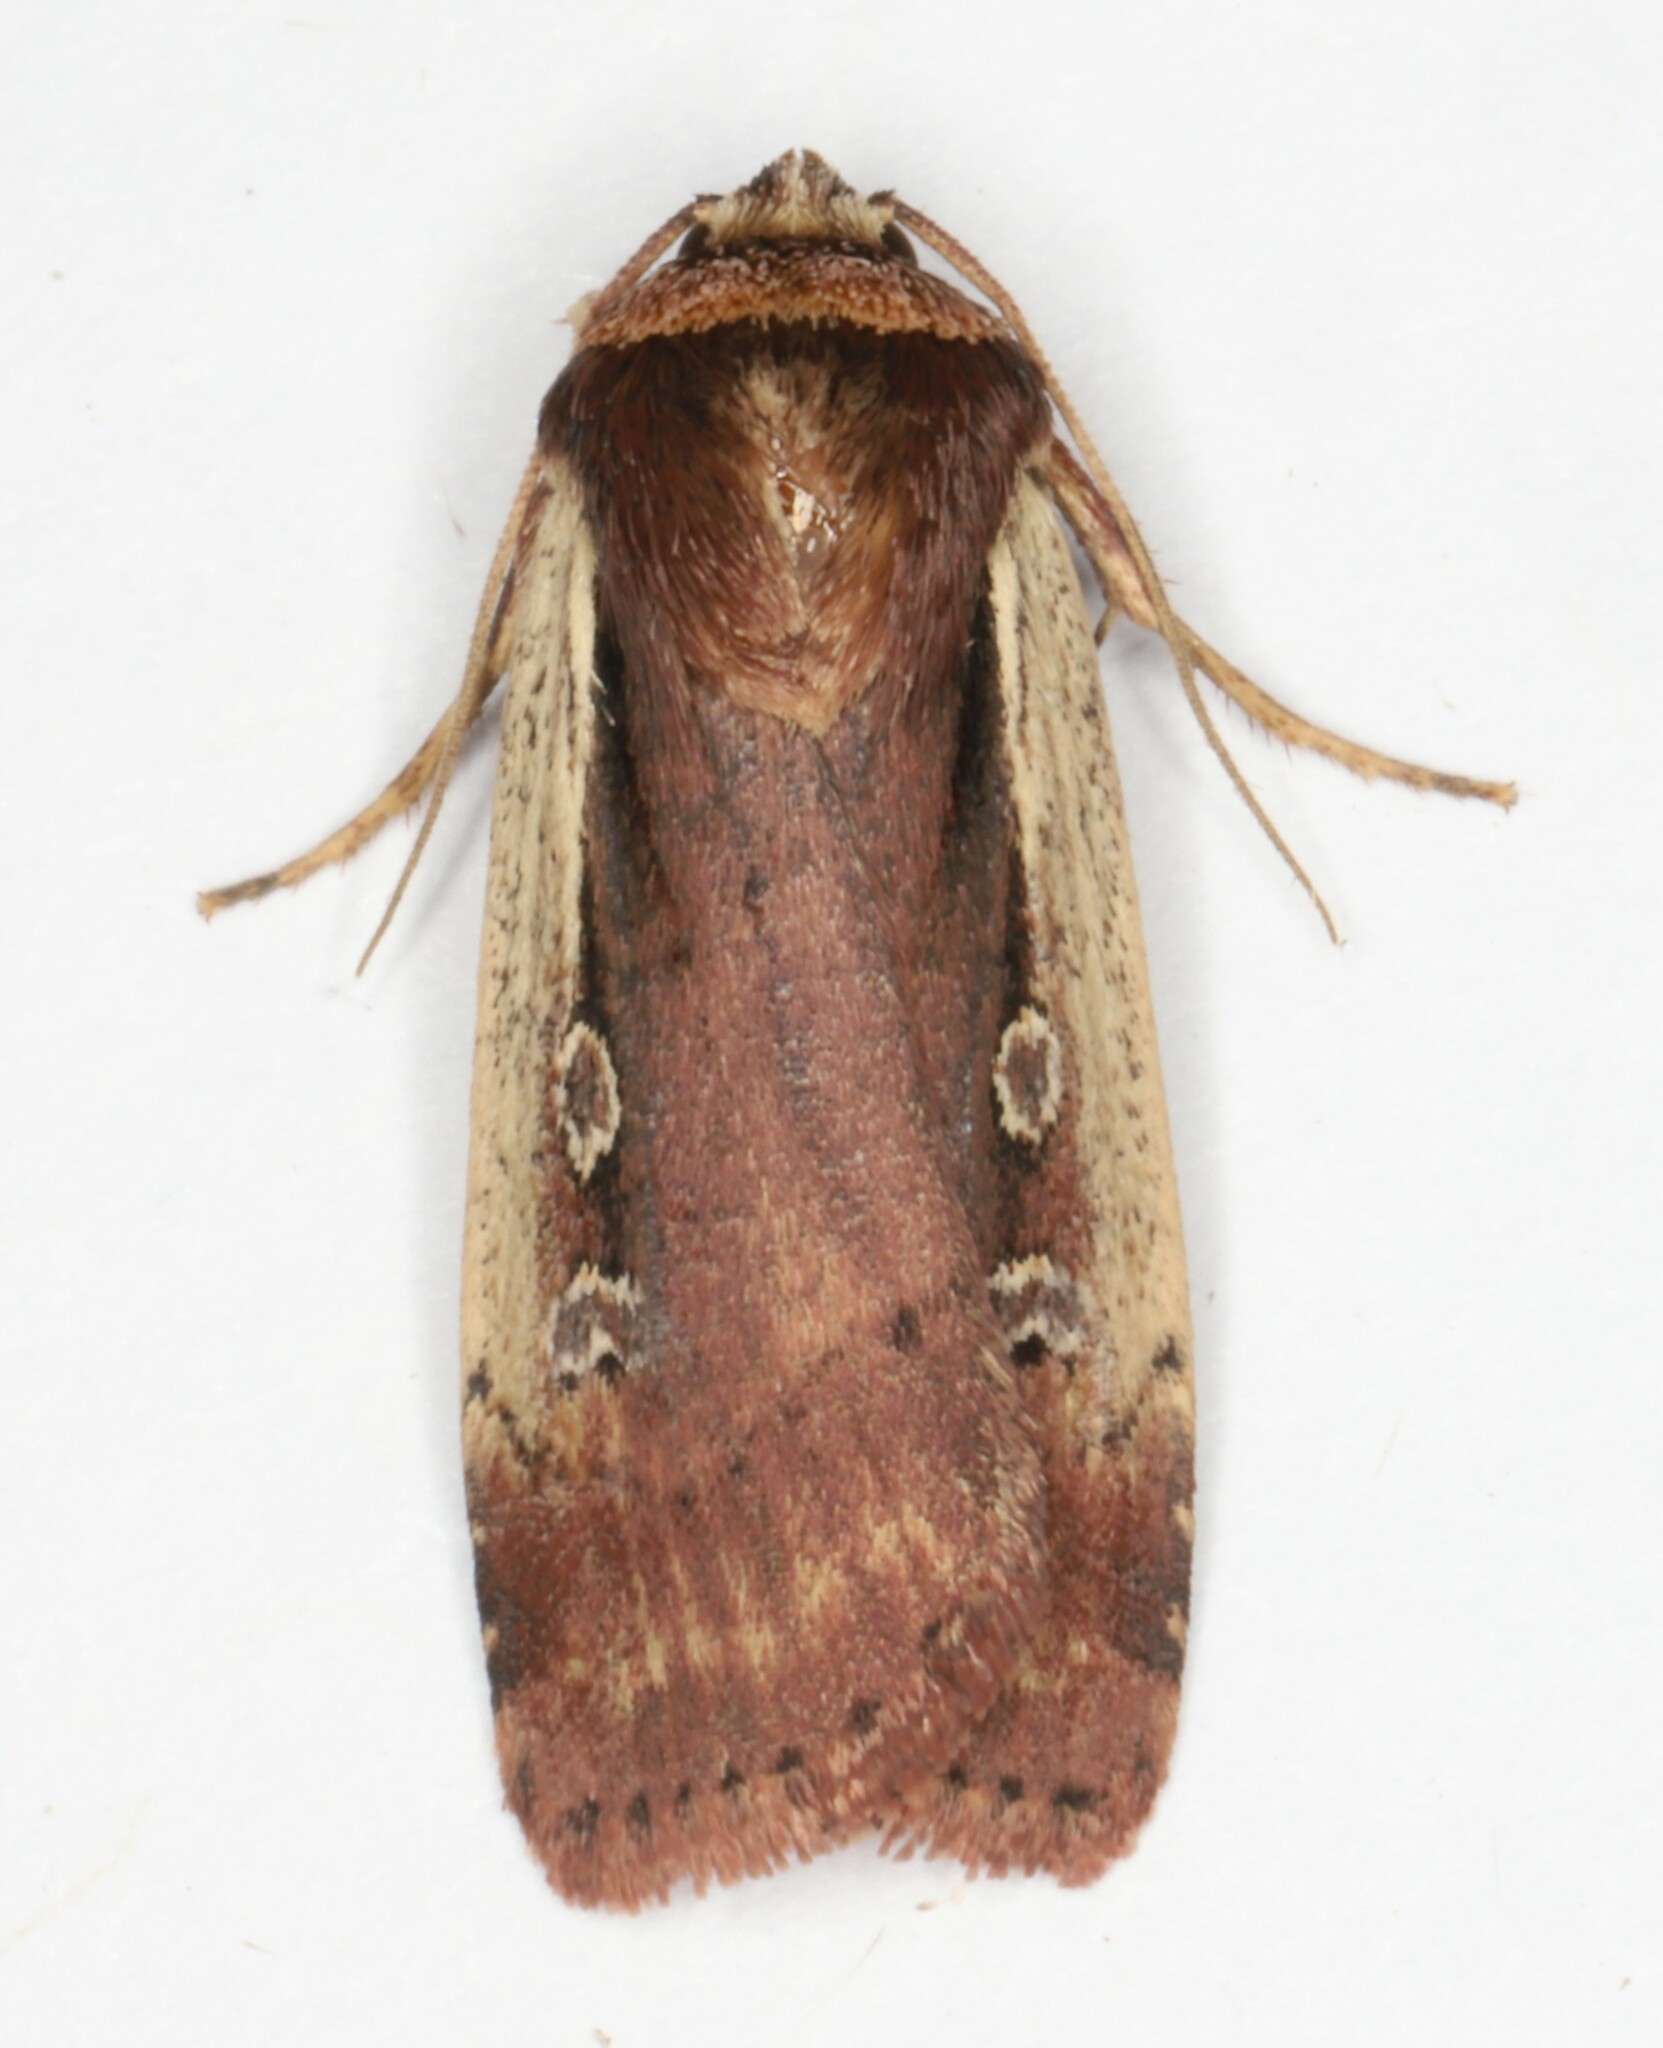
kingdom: Animalia
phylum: Arthropoda
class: Insecta
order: Lepidoptera
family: Noctuidae
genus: Ochropleura
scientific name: Ochropleura implecta
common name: Flame-shouldered dart
